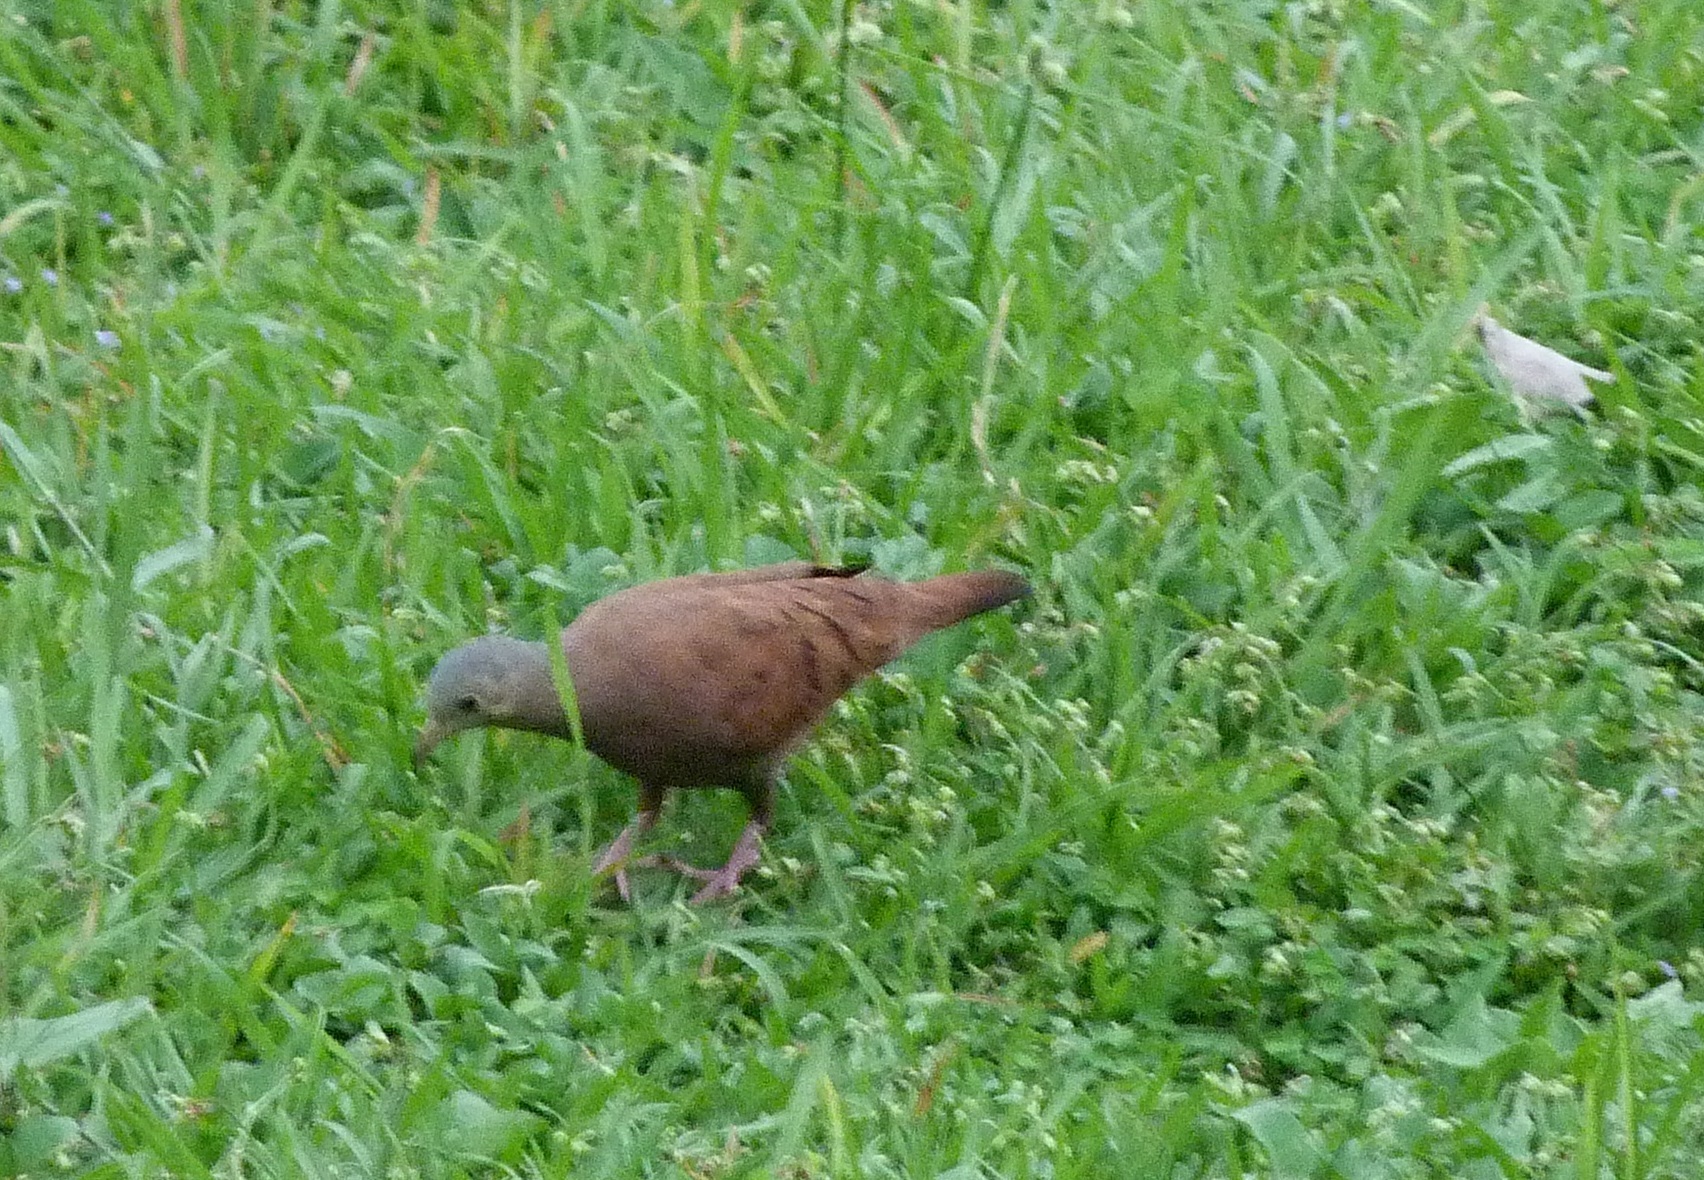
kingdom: Animalia
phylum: Chordata
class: Aves
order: Columbiformes
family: Columbidae
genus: Columbina
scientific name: Columbina talpacoti
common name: Ruddy ground dove
